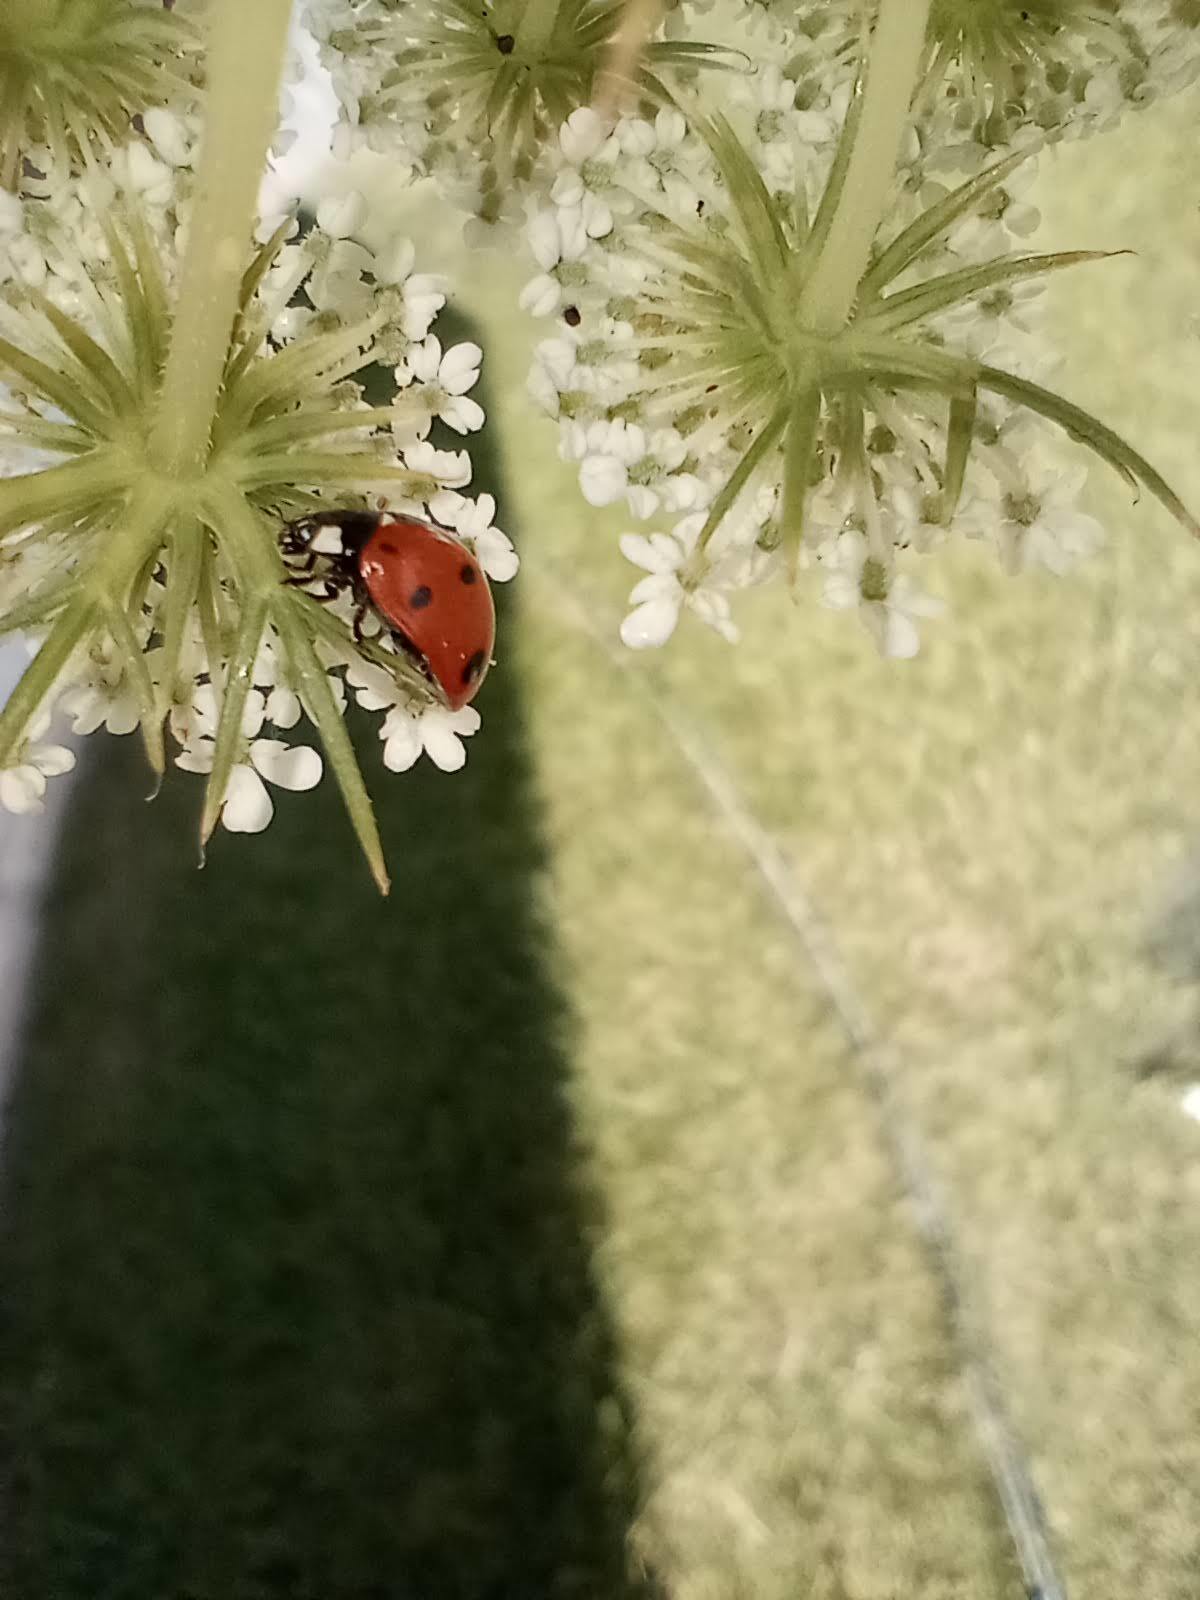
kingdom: Animalia
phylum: Arthropoda
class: Insecta
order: Coleoptera
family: Coccinellidae
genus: Coccinella
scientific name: Coccinella septempunctata
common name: Sevenspotted lady beetle
